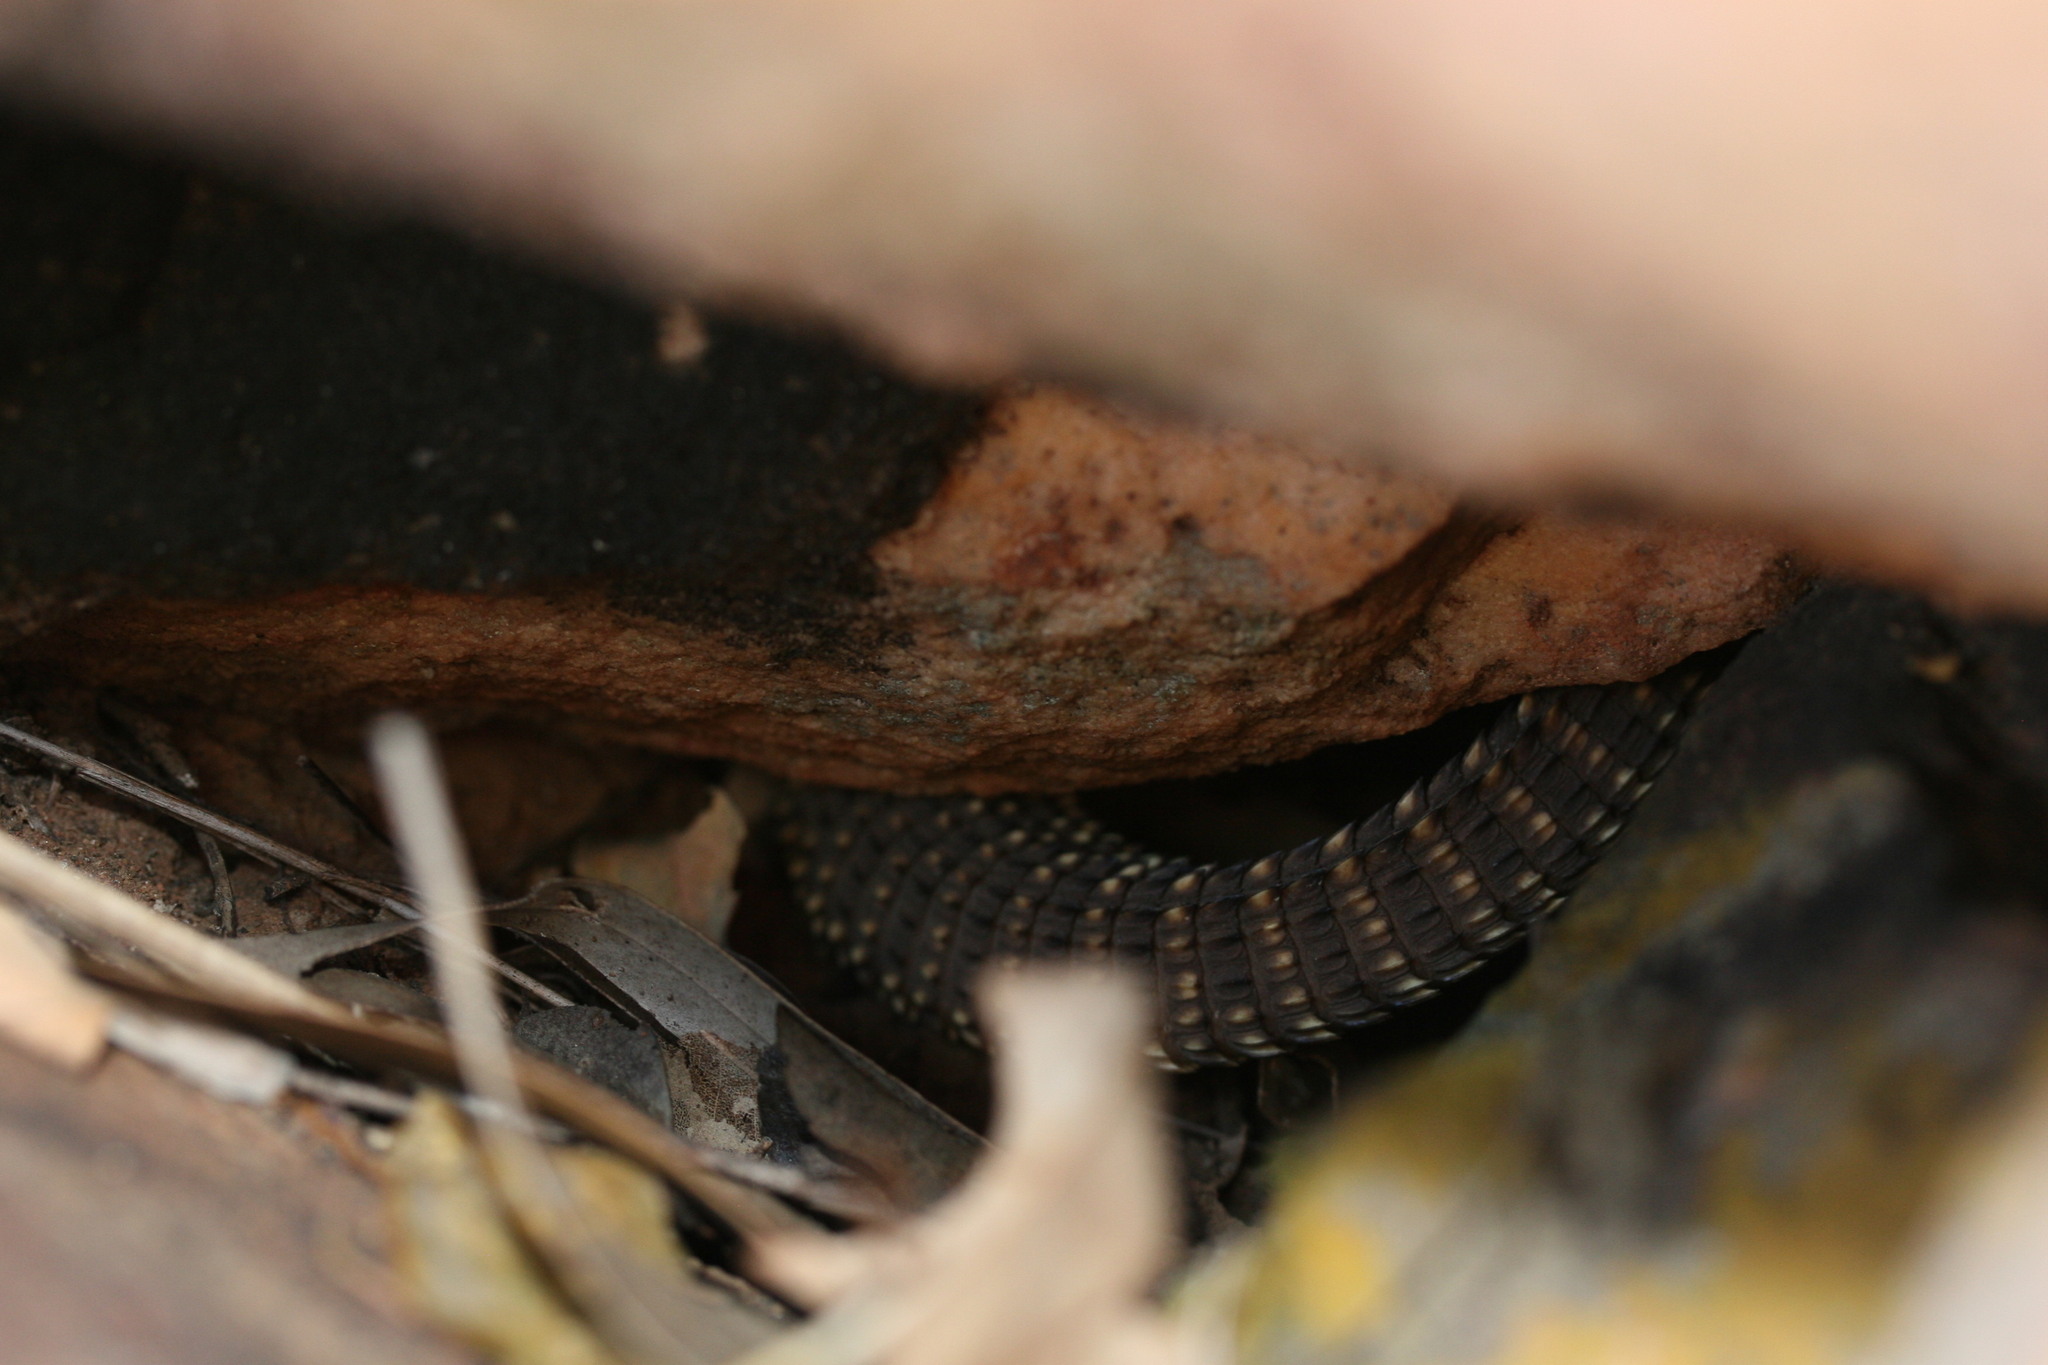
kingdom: Animalia
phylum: Chordata
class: Squamata
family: Varanidae
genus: Varanus
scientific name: Varanus acanthurus
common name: Ridgetail monitor
